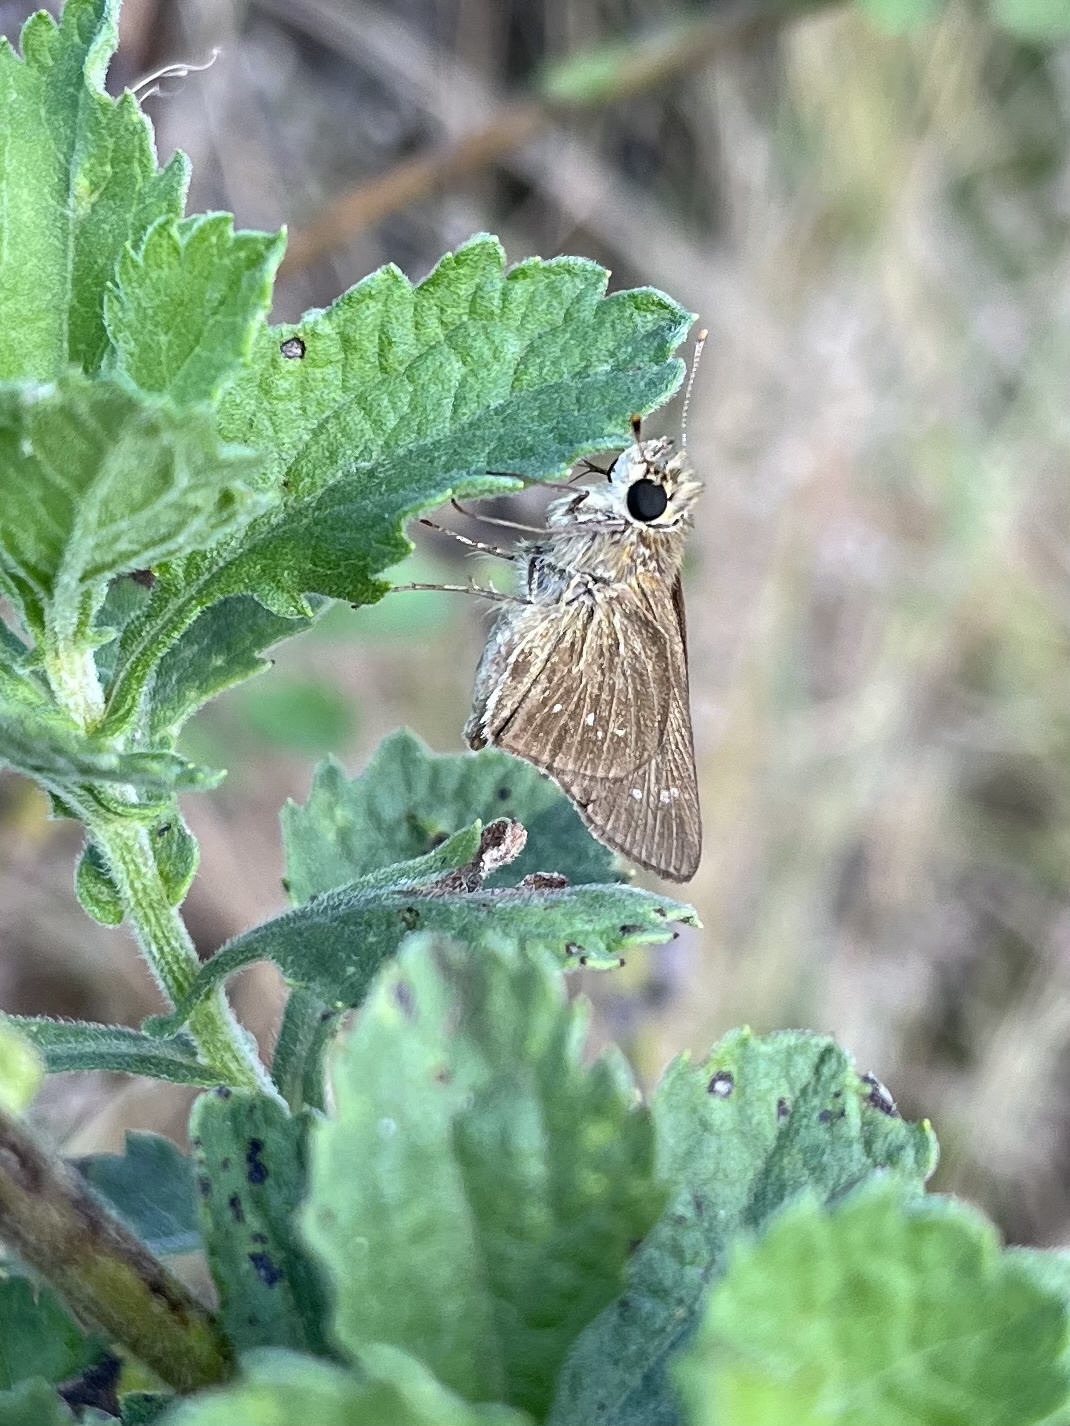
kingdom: Animalia
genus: Torbenlarsenia
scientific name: Torbenlarsenia
